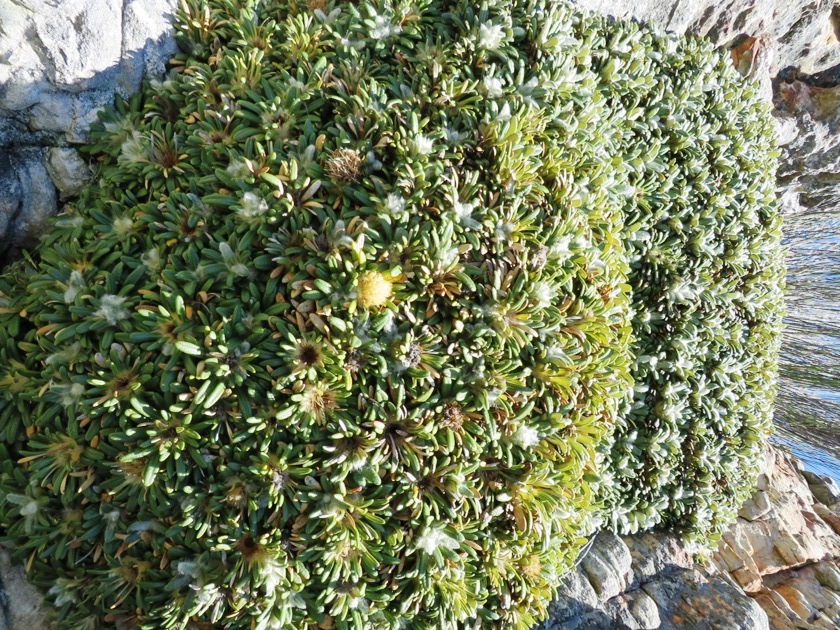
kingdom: Plantae
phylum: Tracheophyta
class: Magnoliopsida
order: Asterales
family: Asteraceae
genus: Oldenburgia
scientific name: Oldenburgia paradoxa
